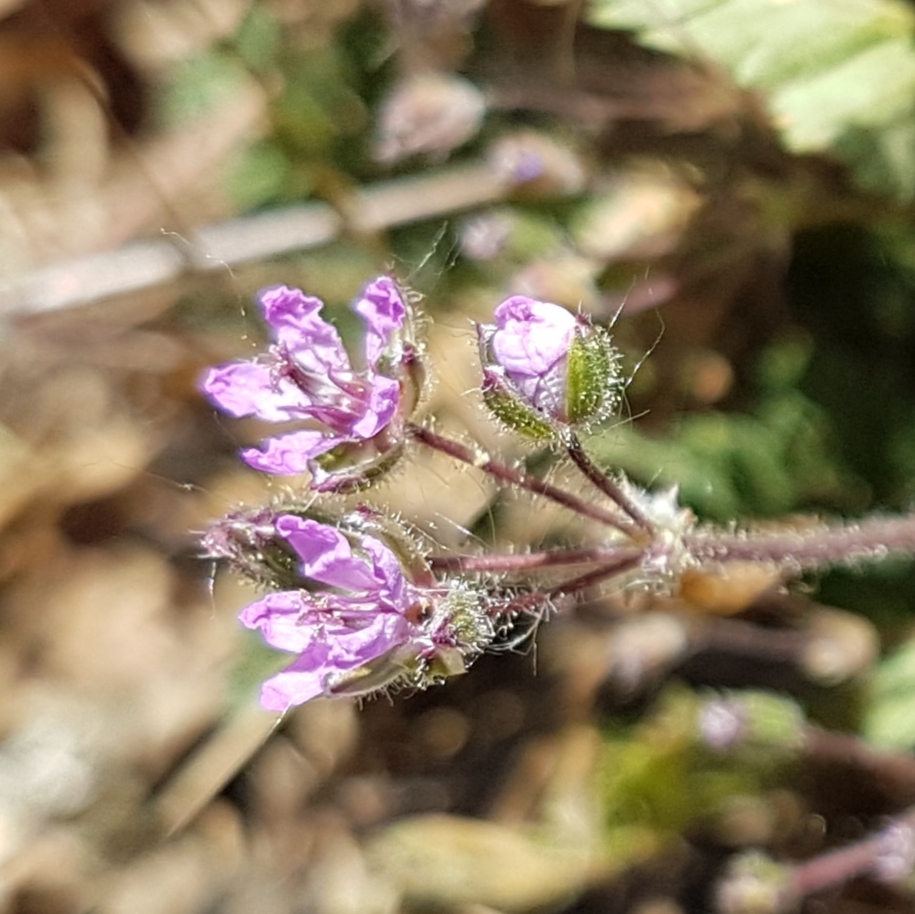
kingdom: Plantae
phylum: Tracheophyta
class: Magnoliopsida
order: Geraniales
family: Geraniaceae
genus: Erodium
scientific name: Erodium cicutarium
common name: Common stork's-bill
